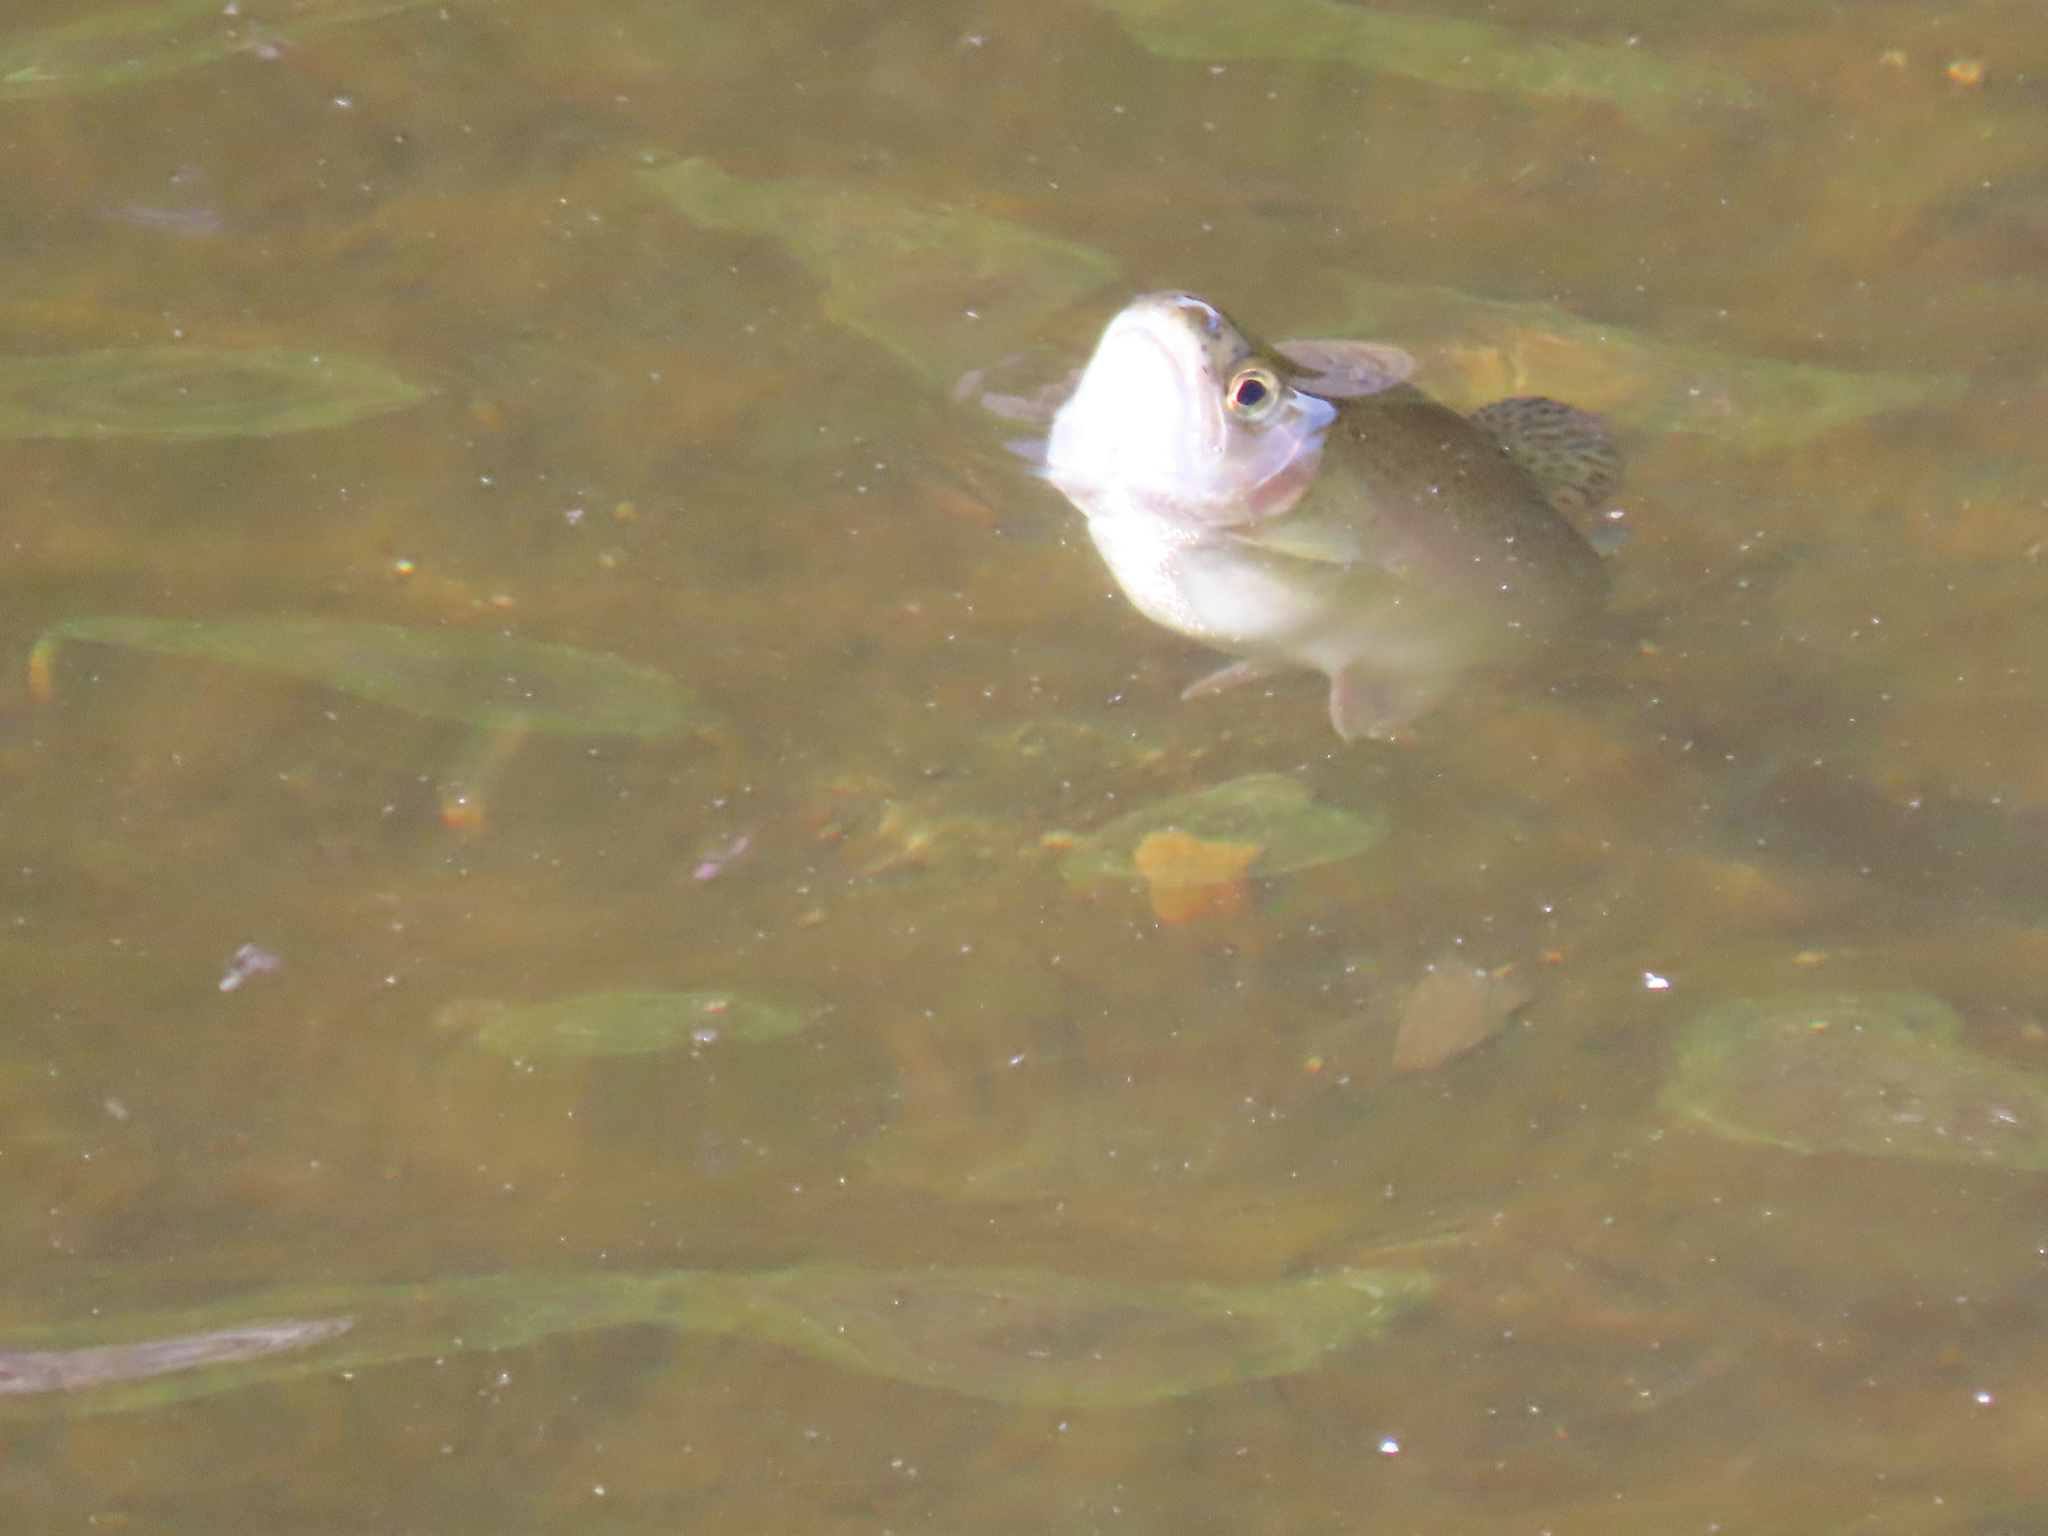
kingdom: Animalia
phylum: Chordata
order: Salmoniformes
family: Salmonidae
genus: Oncorhynchus
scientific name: Oncorhynchus mykiss
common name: Rainbow trout
